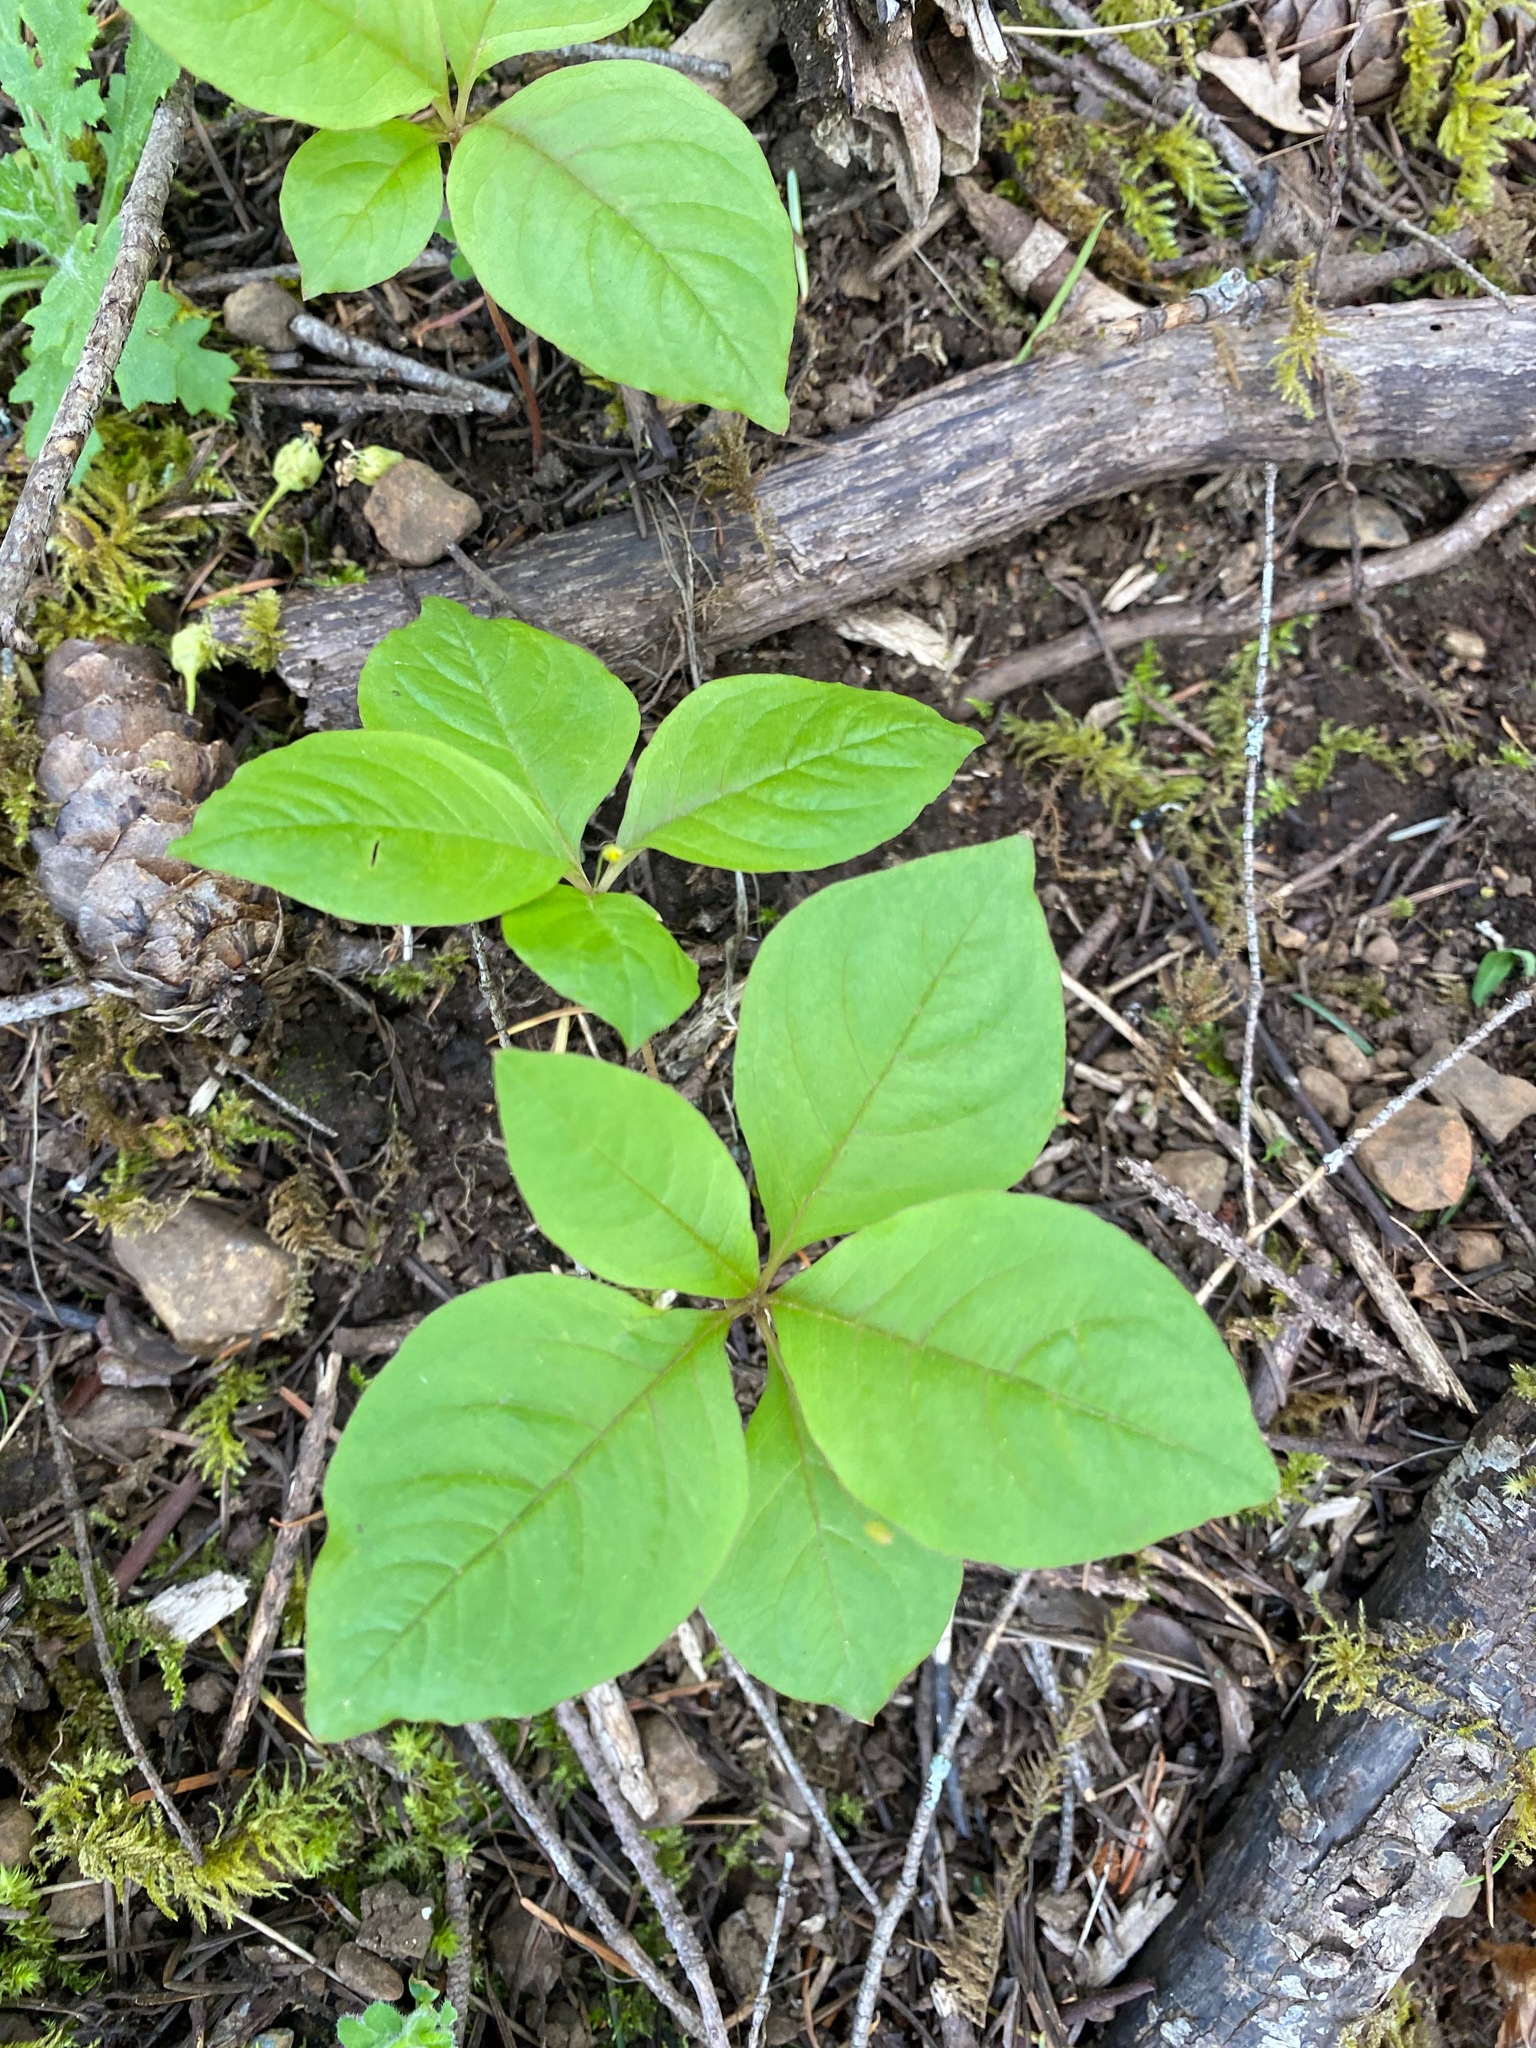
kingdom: Plantae
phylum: Tracheophyta
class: Magnoliopsida
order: Ericales
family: Primulaceae
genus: Lysimachia
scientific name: Lysimachia latifolia
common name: Pacific starflower
